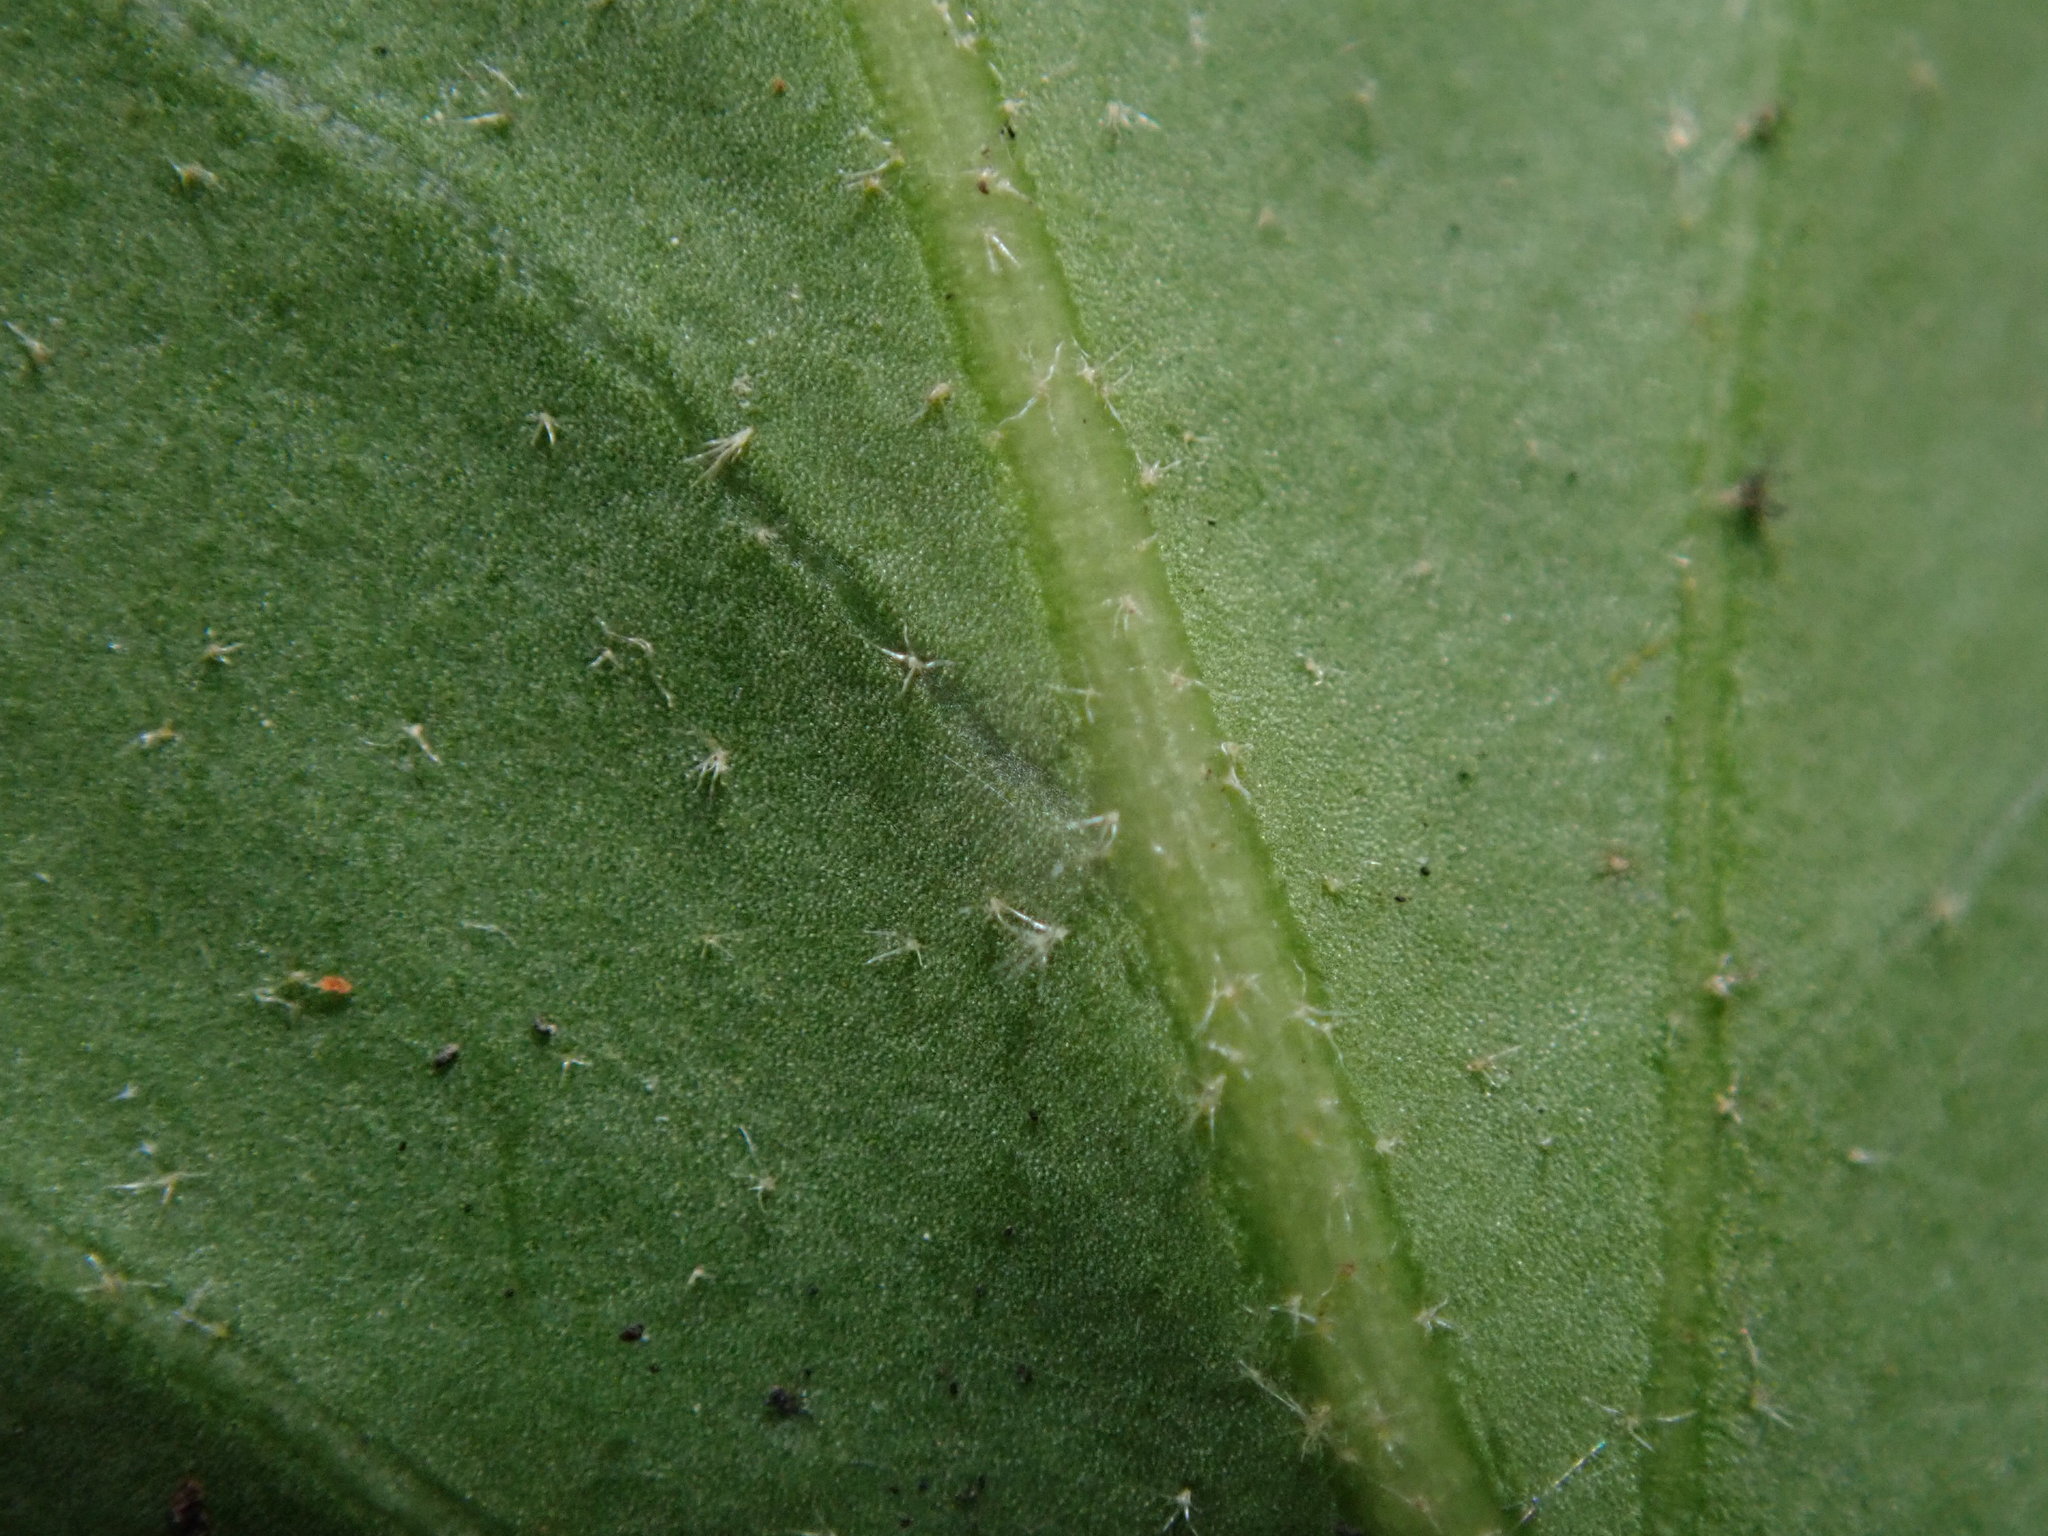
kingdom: Plantae
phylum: Tracheophyta
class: Magnoliopsida
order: Apiales
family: Araliaceae
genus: Hedera
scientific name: Hedera helix
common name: Ivy
